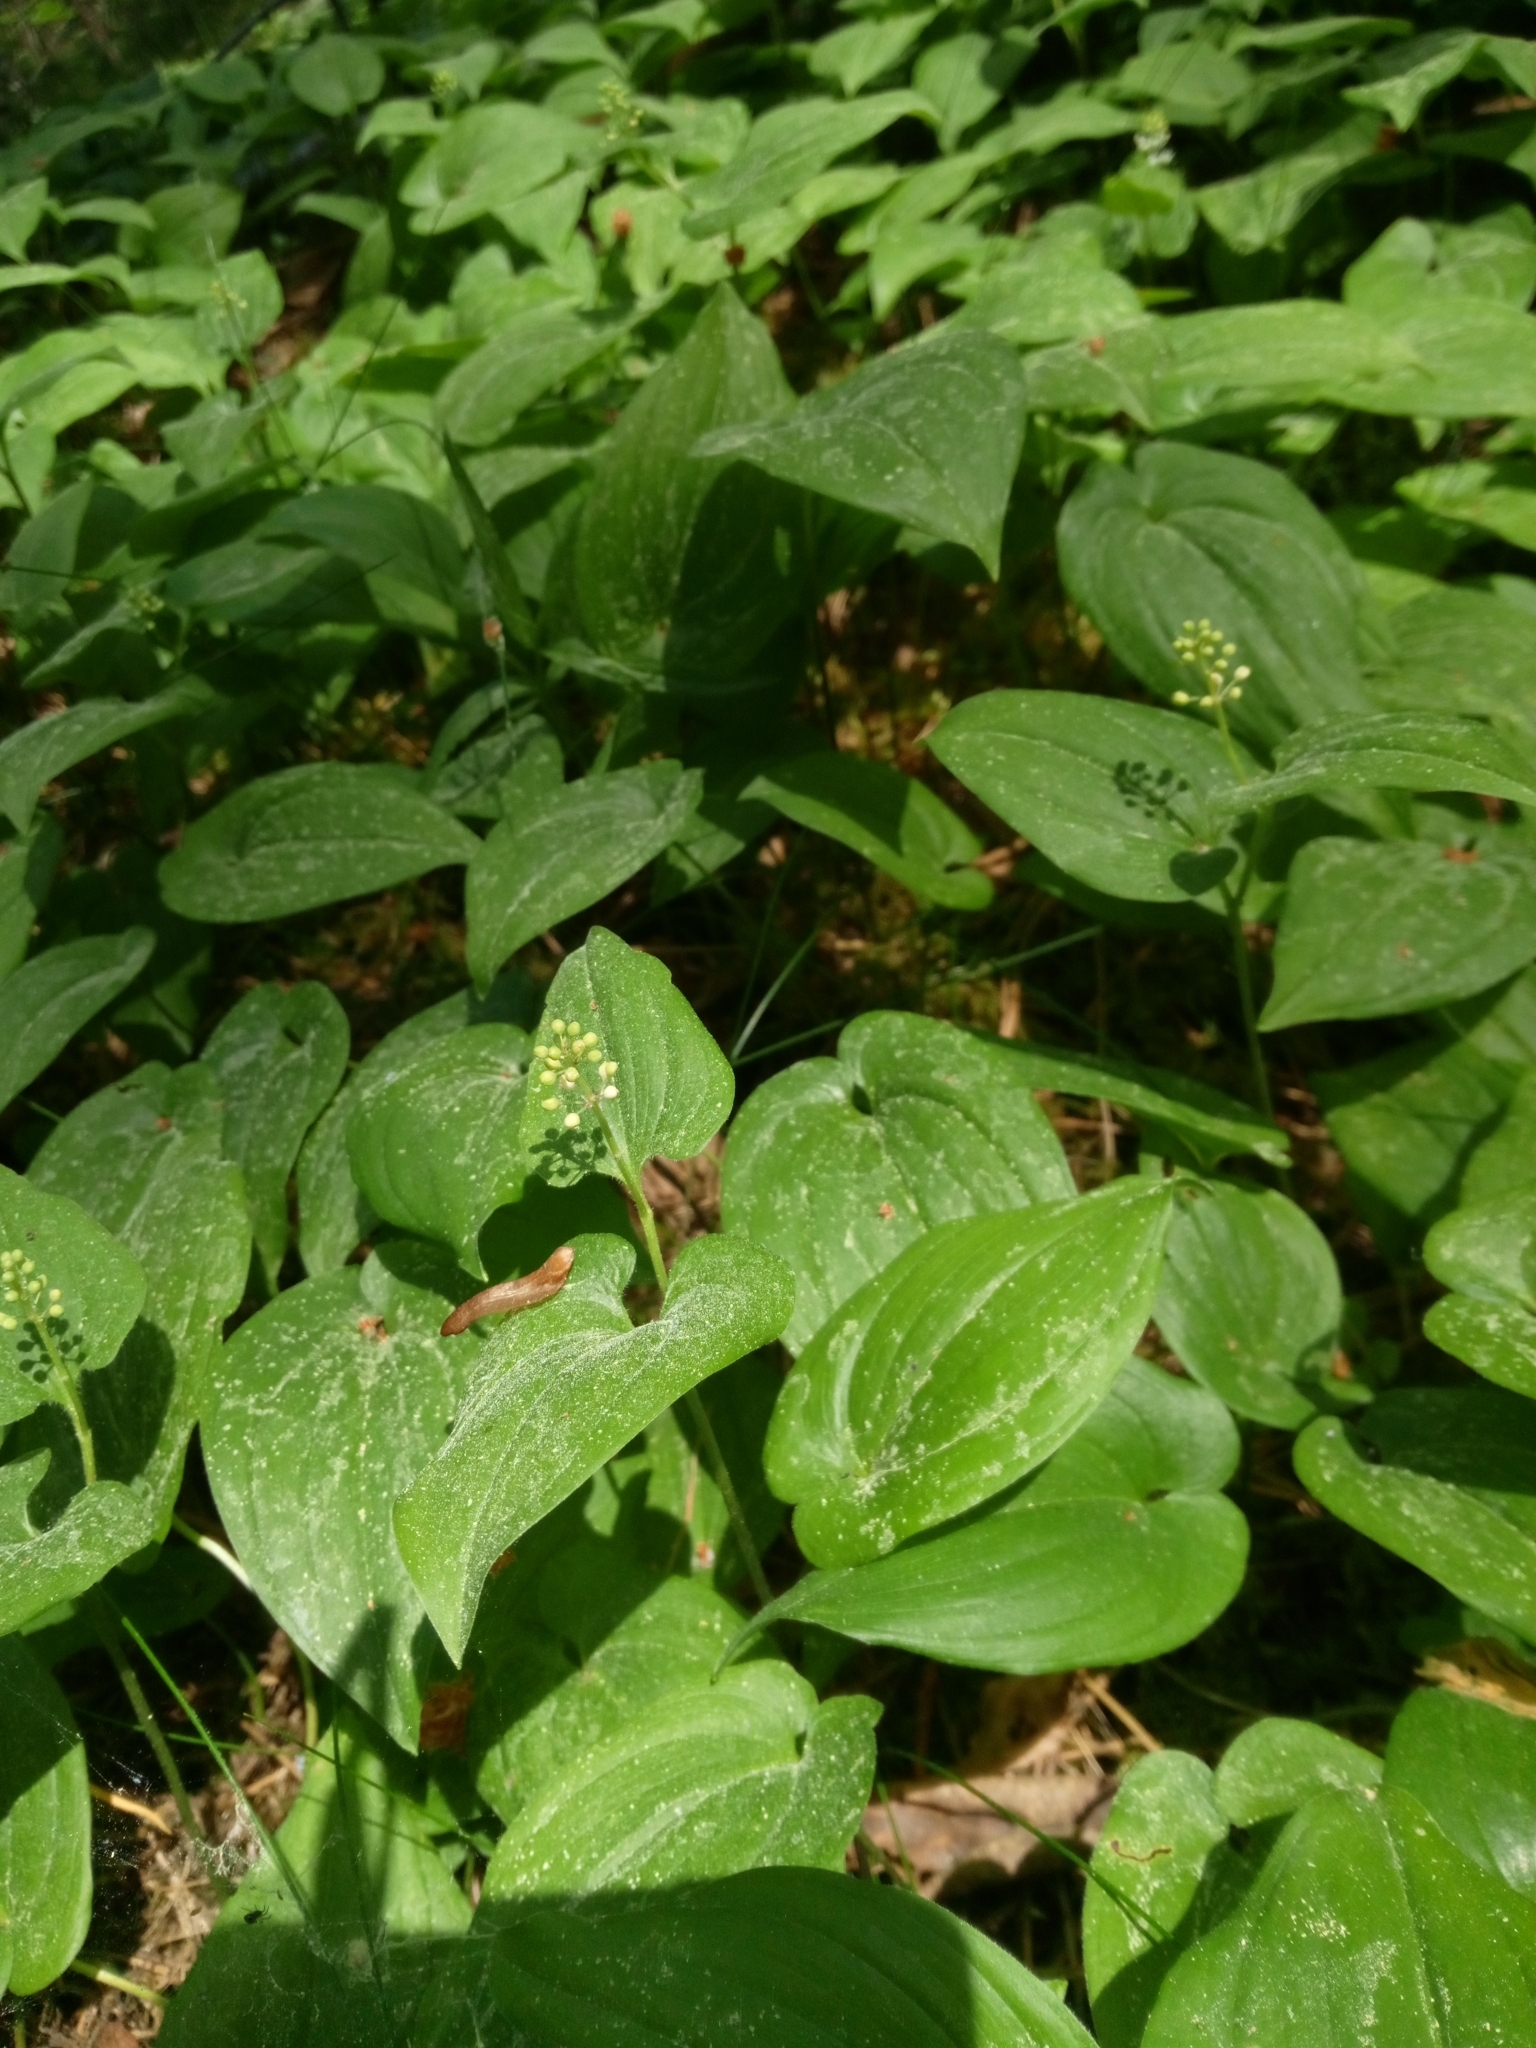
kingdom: Plantae
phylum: Tracheophyta
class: Liliopsida
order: Asparagales
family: Asparagaceae
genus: Maianthemum
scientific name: Maianthemum bifolium
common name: May lily
